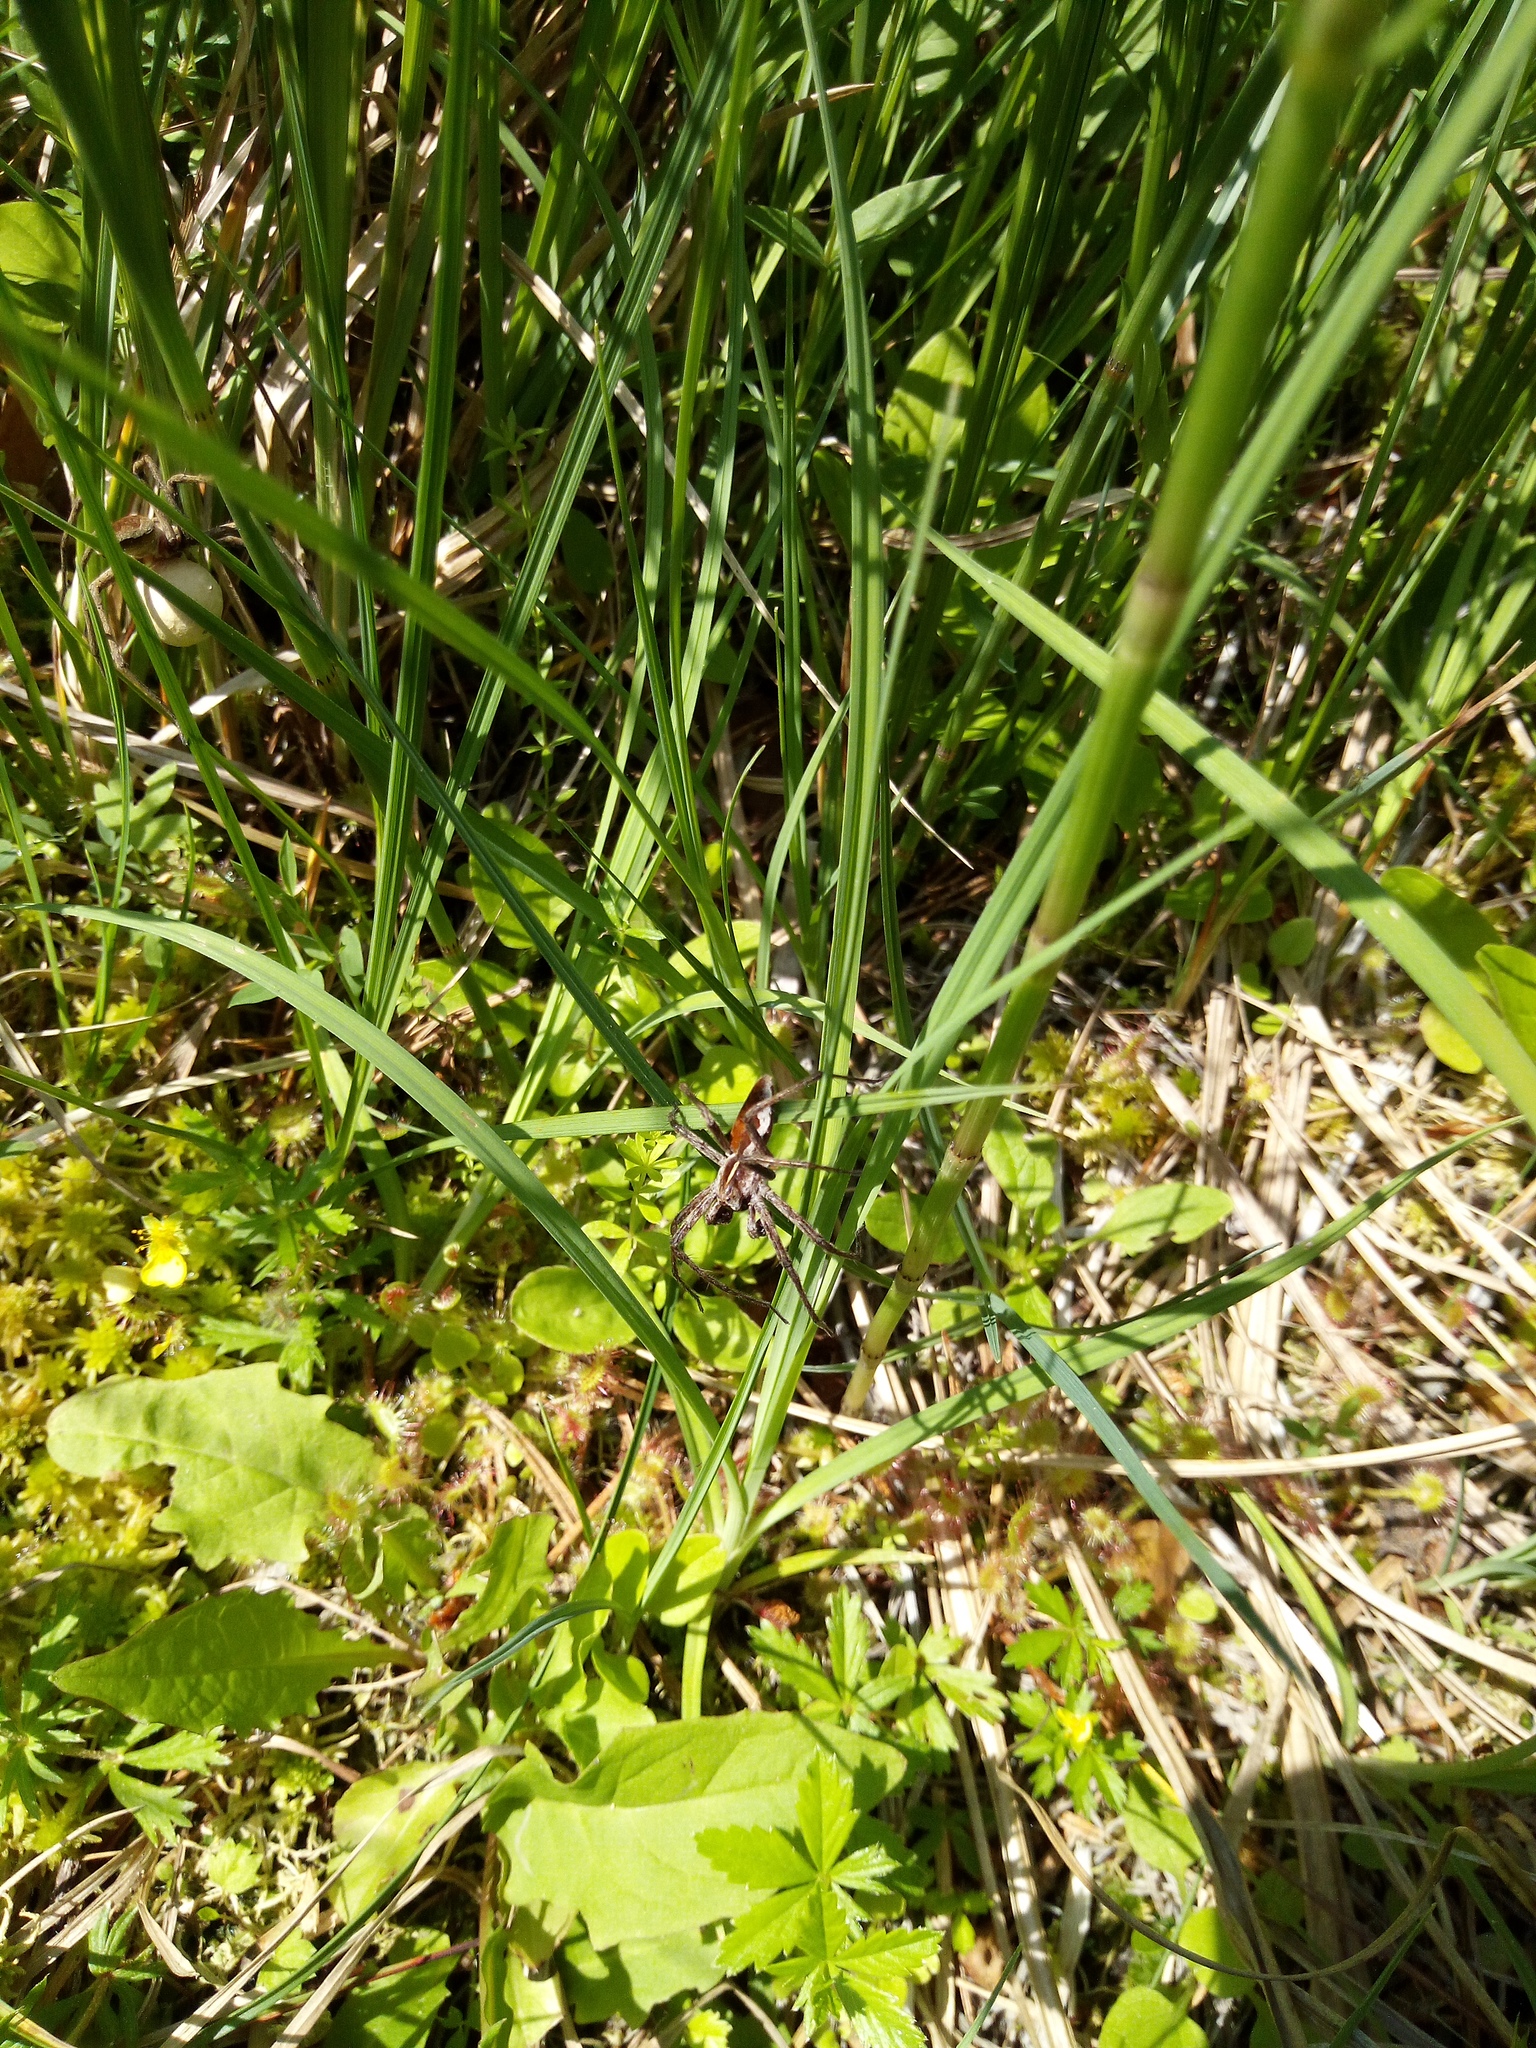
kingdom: Animalia
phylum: Arthropoda
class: Arachnida
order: Araneae
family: Pisauridae
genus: Pisaura
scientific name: Pisaura mirabilis
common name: Tent spider
